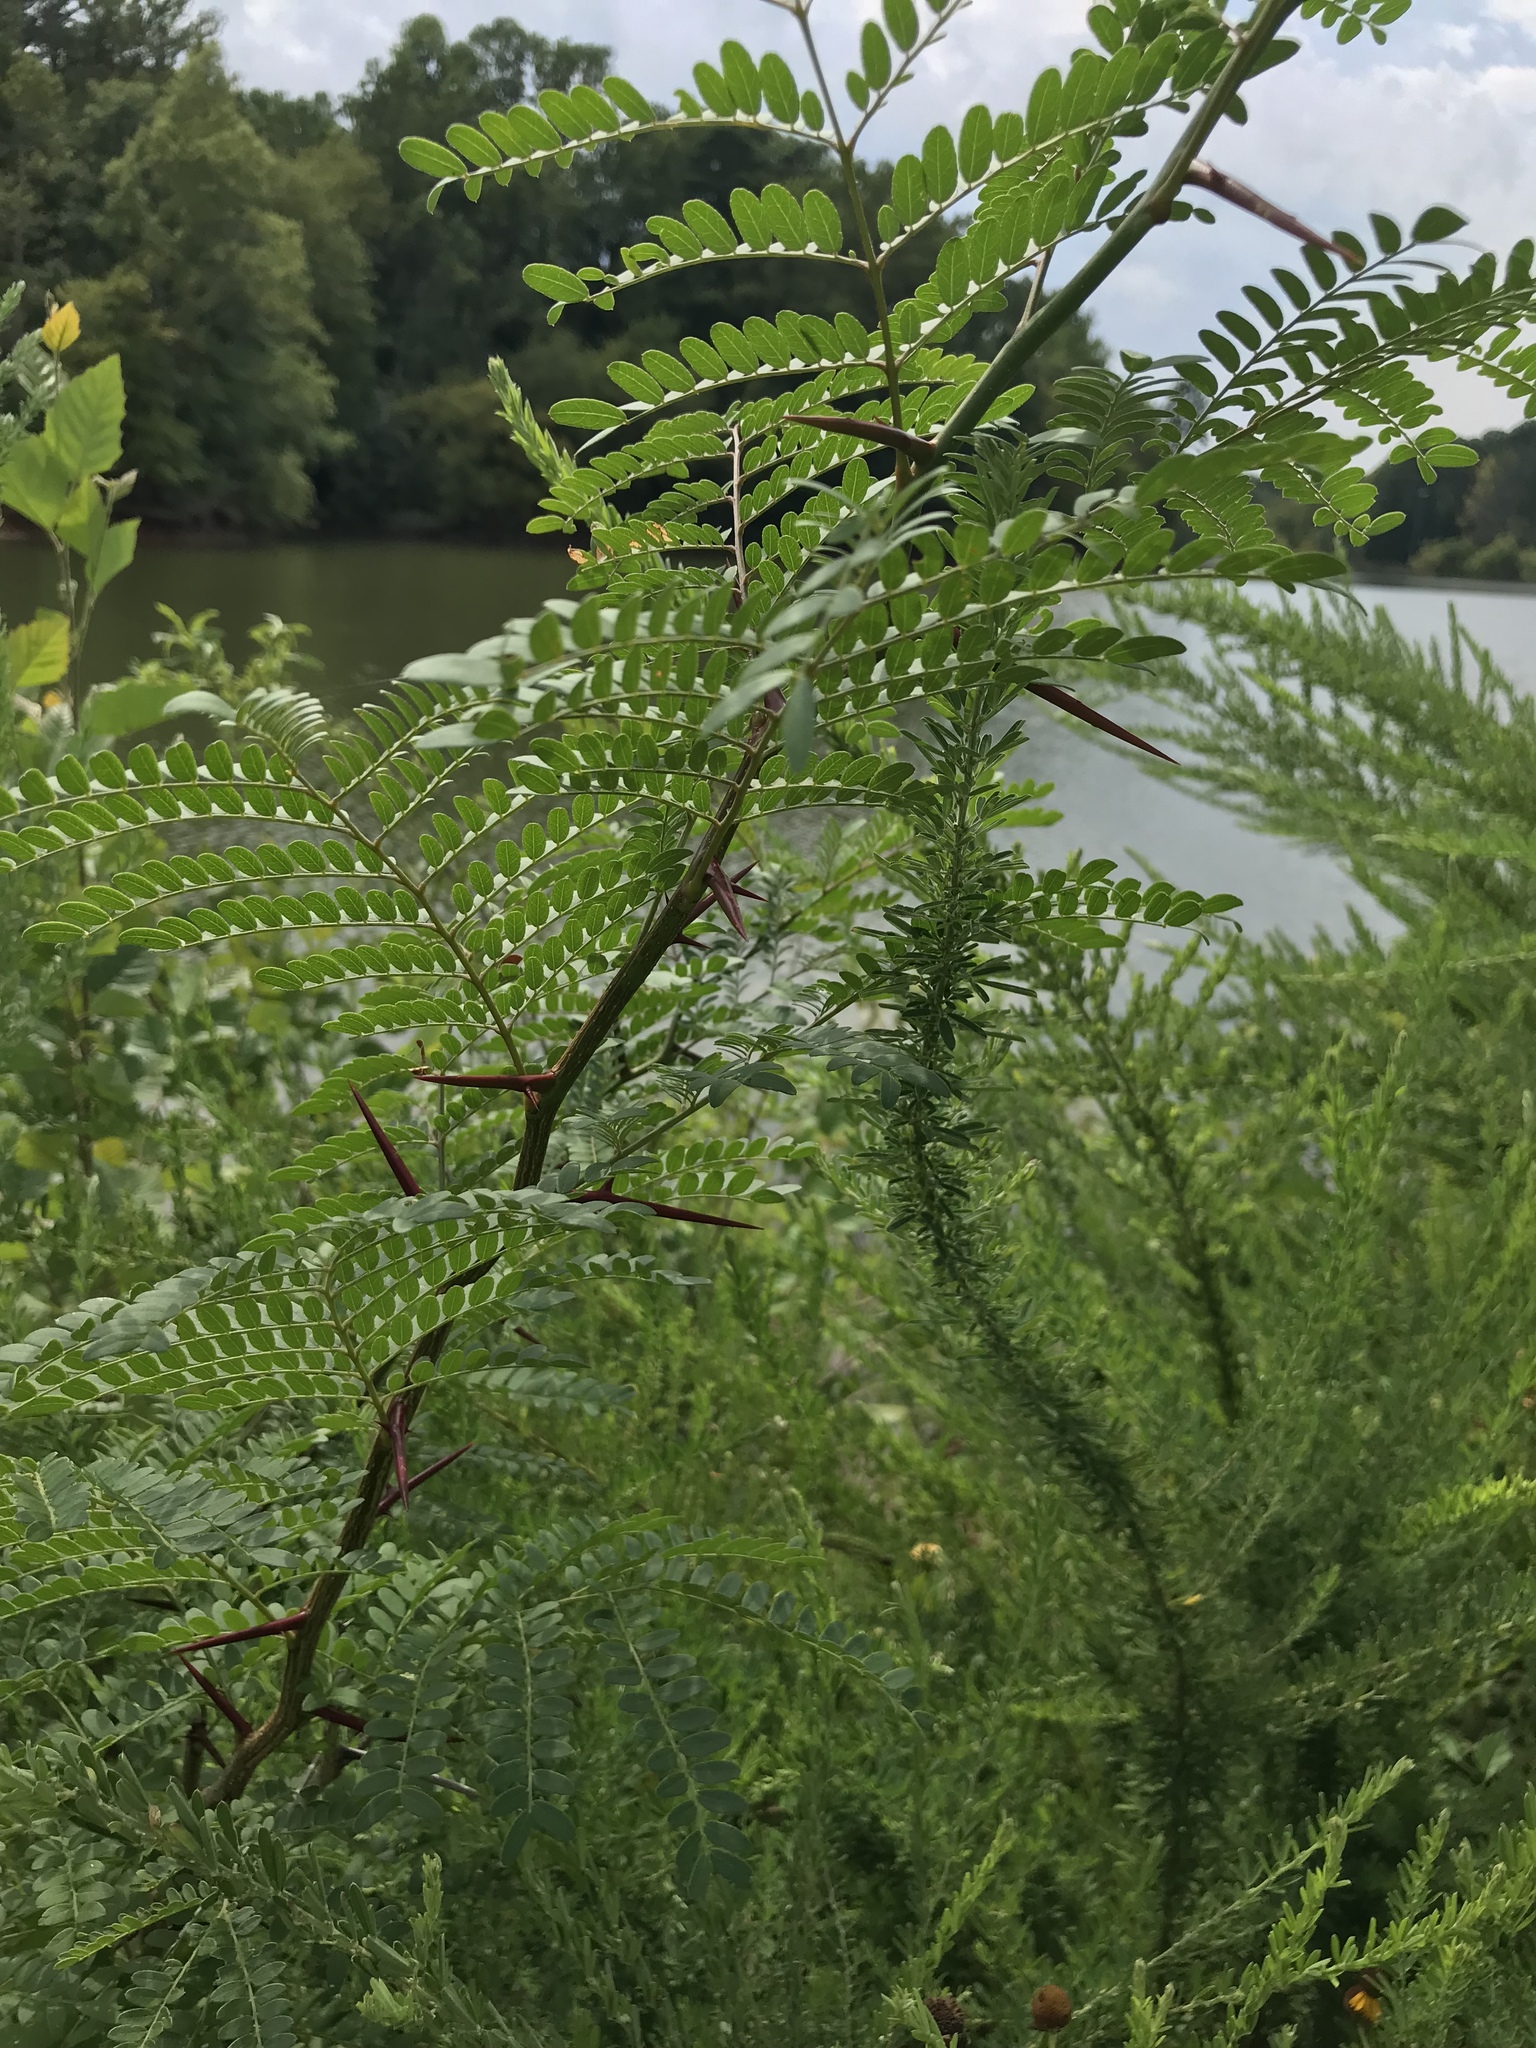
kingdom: Plantae
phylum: Tracheophyta
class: Magnoliopsida
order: Fabales
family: Fabaceae
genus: Gleditsia
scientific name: Gleditsia triacanthos
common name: Common honeylocust
